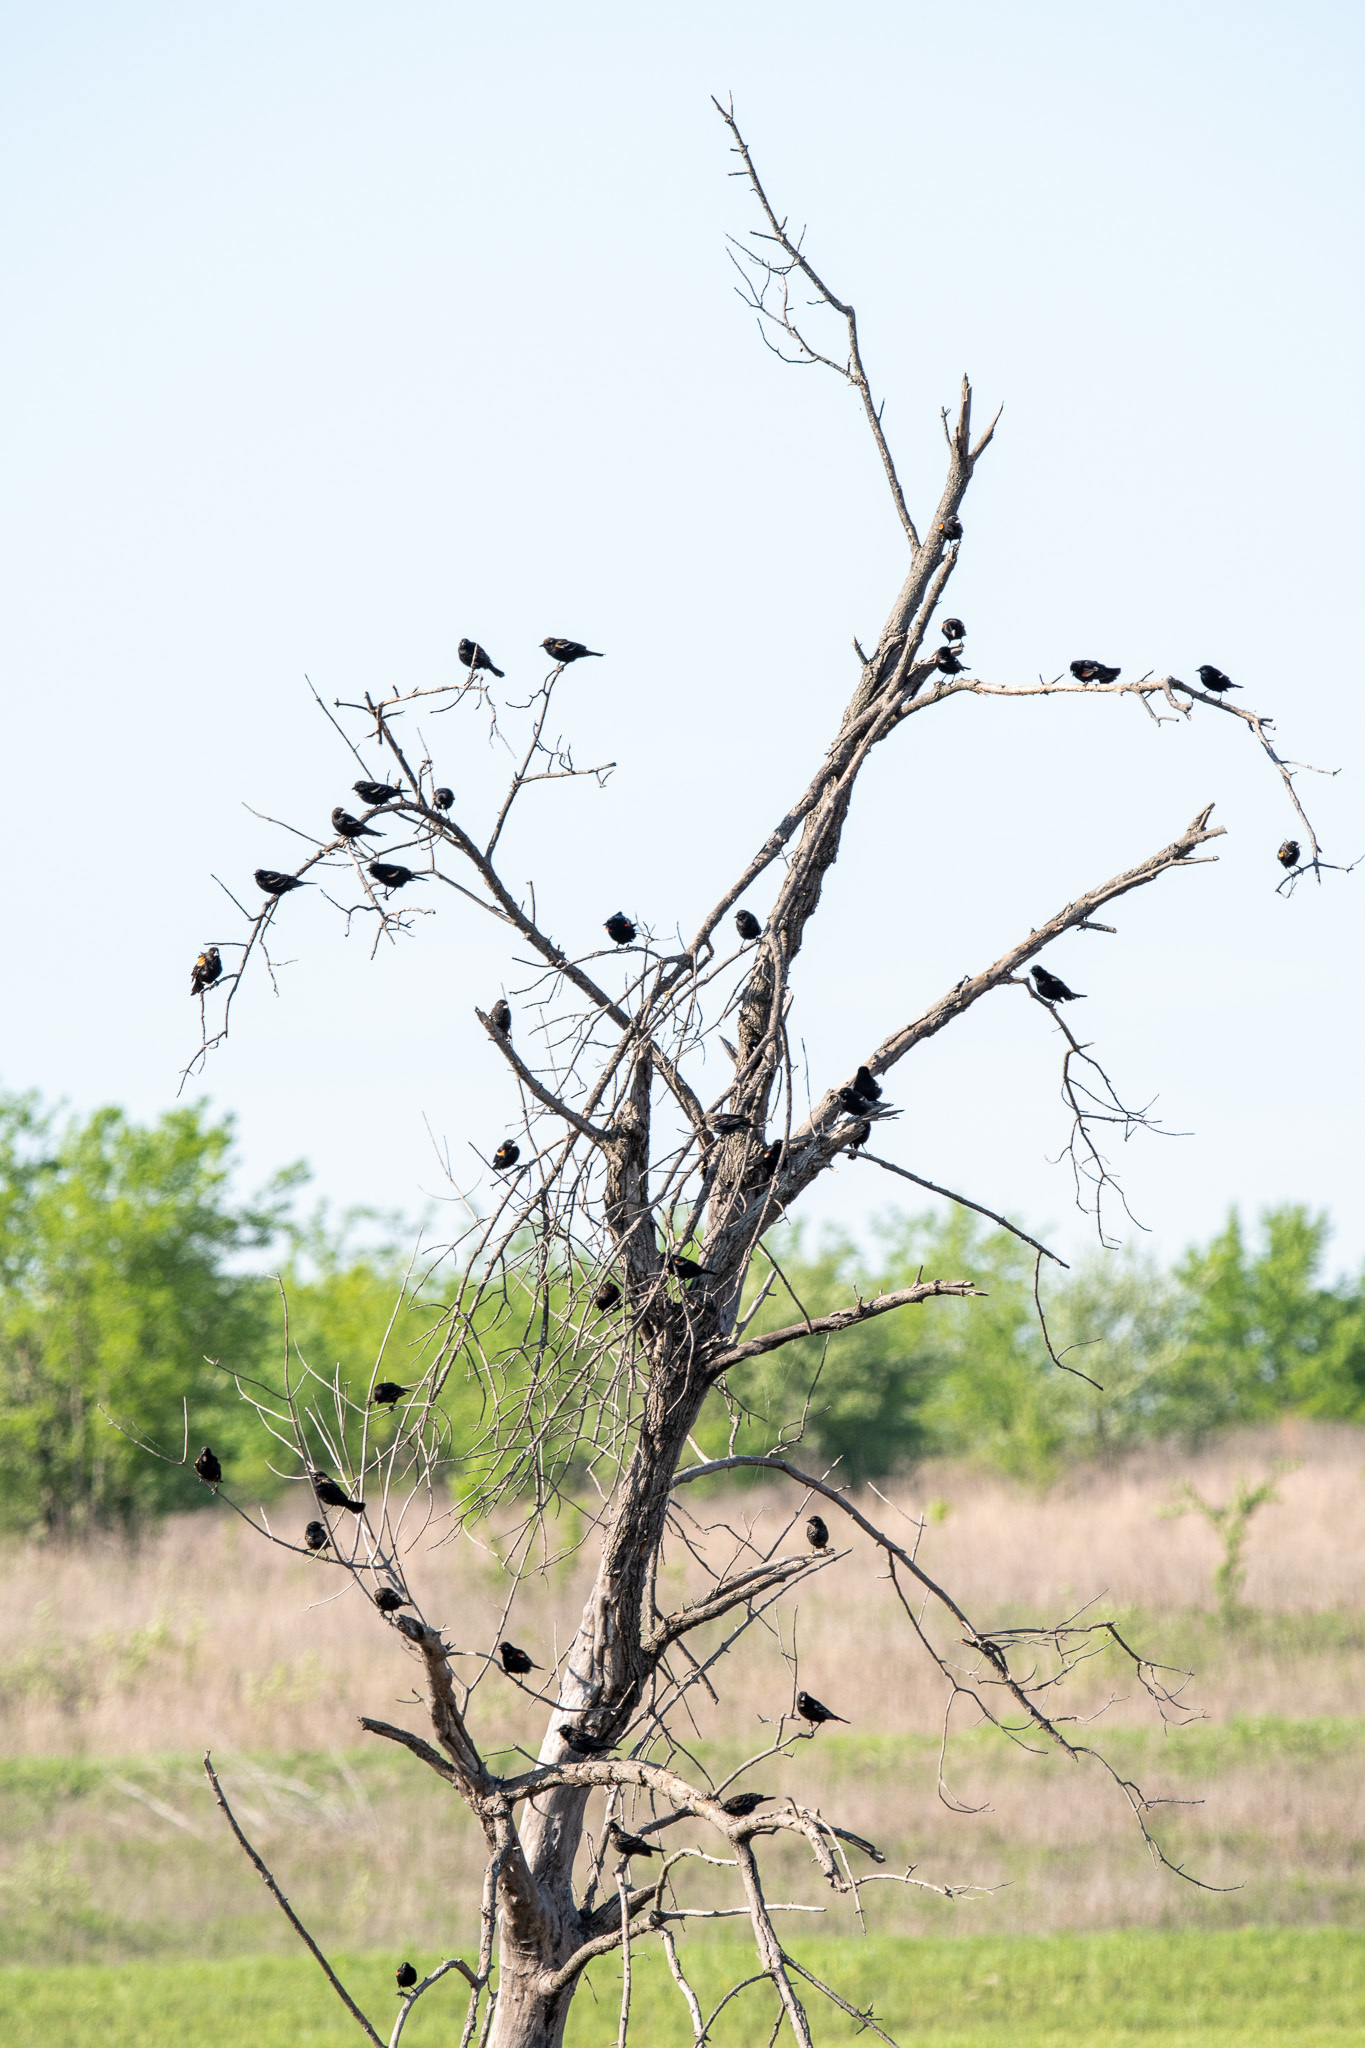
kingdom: Animalia
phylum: Chordata
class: Aves
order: Passeriformes
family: Icteridae
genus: Agelaius
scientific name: Agelaius phoeniceus
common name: Red-winged blackbird
